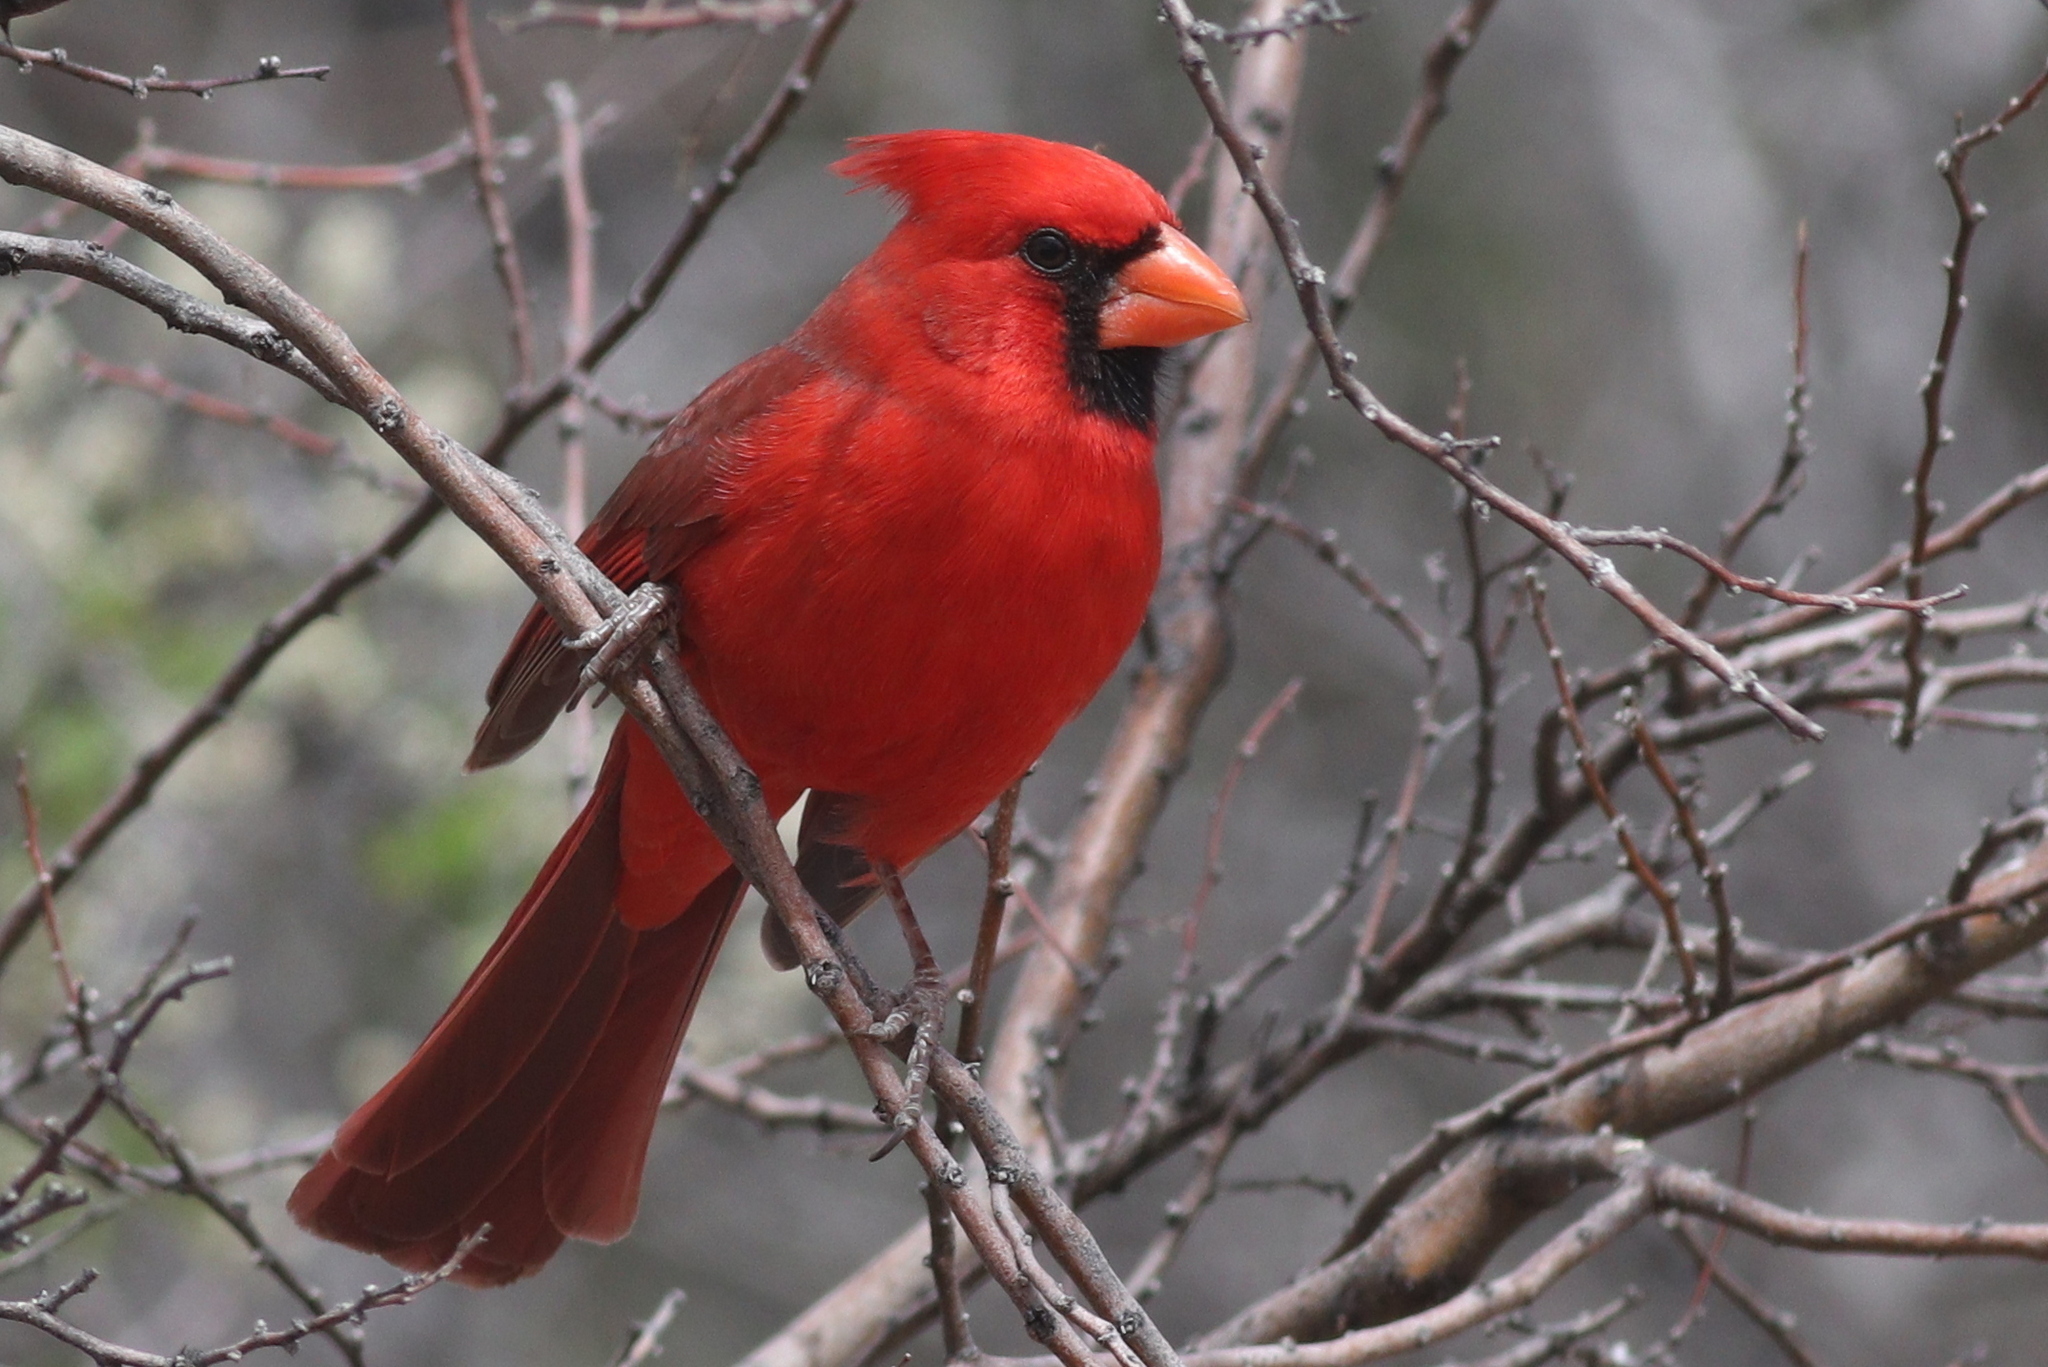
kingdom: Animalia
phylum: Chordata
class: Aves
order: Passeriformes
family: Cardinalidae
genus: Cardinalis
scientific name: Cardinalis cardinalis
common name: Northern cardinal
